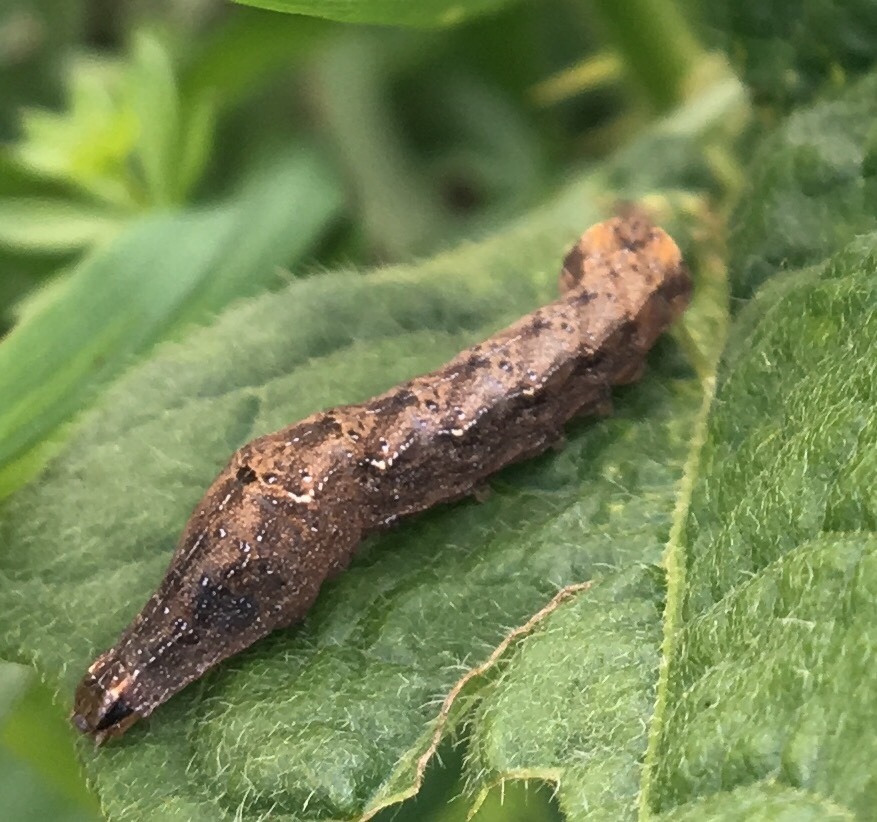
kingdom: Animalia
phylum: Arthropoda
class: Insecta
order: Lepidoptera
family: Noctuidae
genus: Orthodes
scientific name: Orthodes cynica
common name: Cynical quaker
